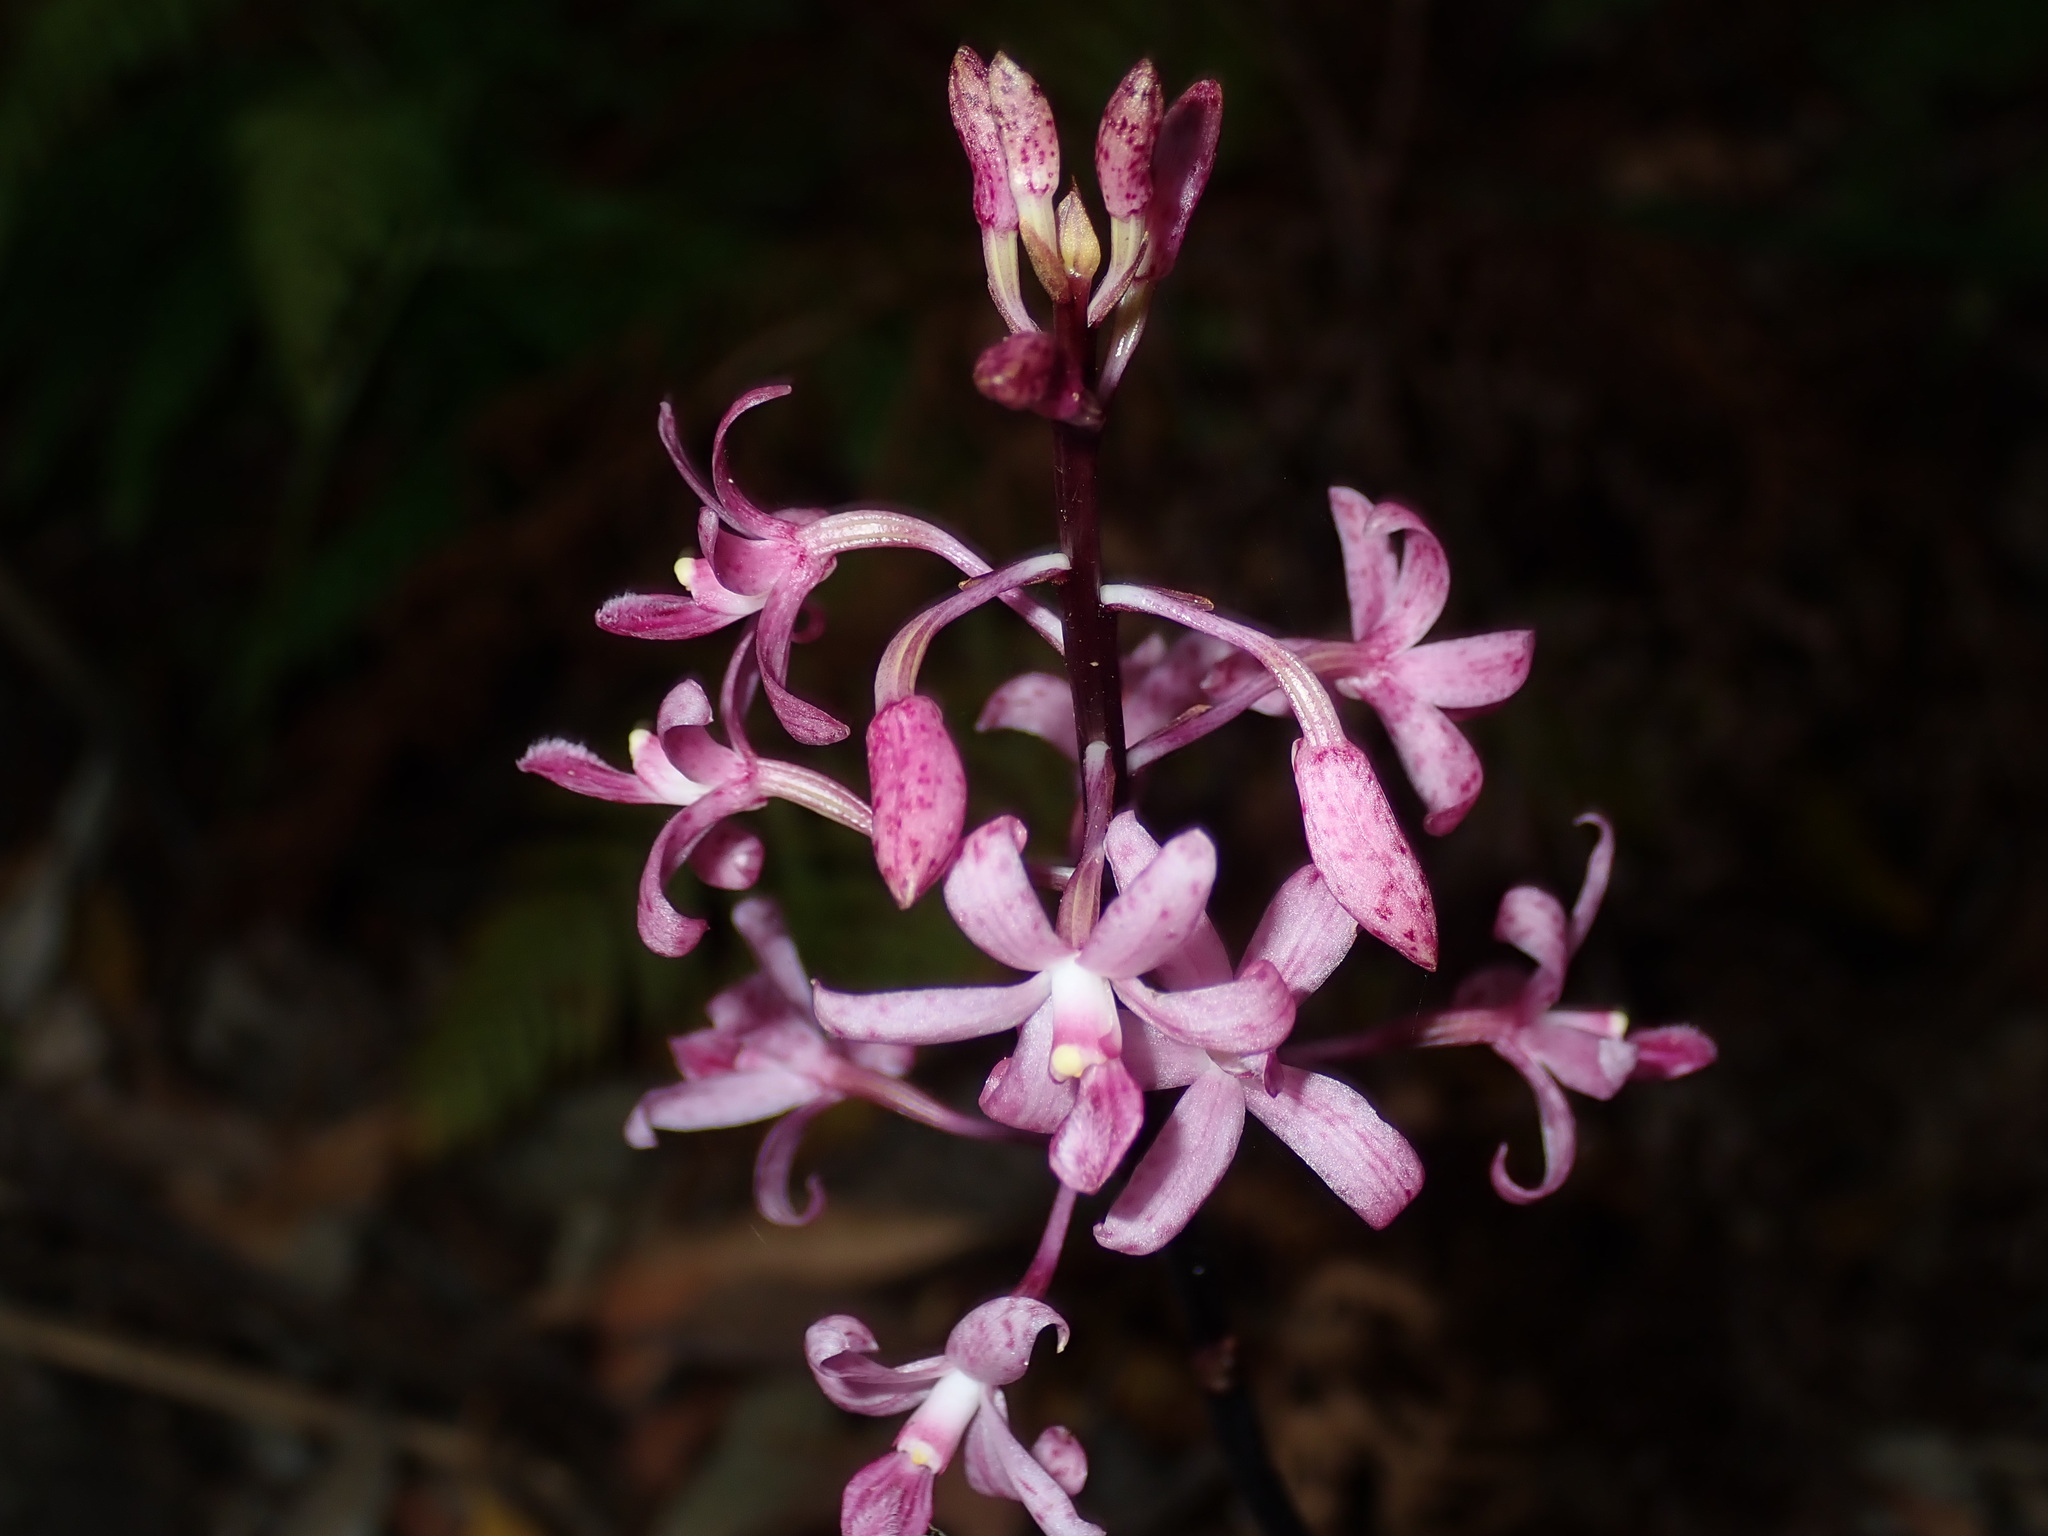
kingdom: Plantae
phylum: Tracheophyta
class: Liliopsida
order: Asparagales
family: Orchidaceae
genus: Dipodium
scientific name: Dipodium roseum
